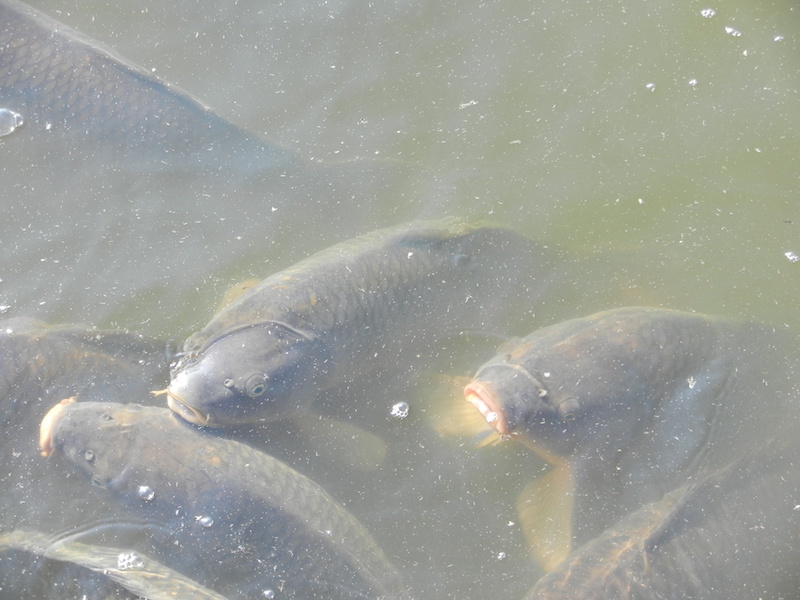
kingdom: Animalia
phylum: Chordata
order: Cypriniformes
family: Cyprinidae
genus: Cyprinus
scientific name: Cyprinus carpio
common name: Common carp
